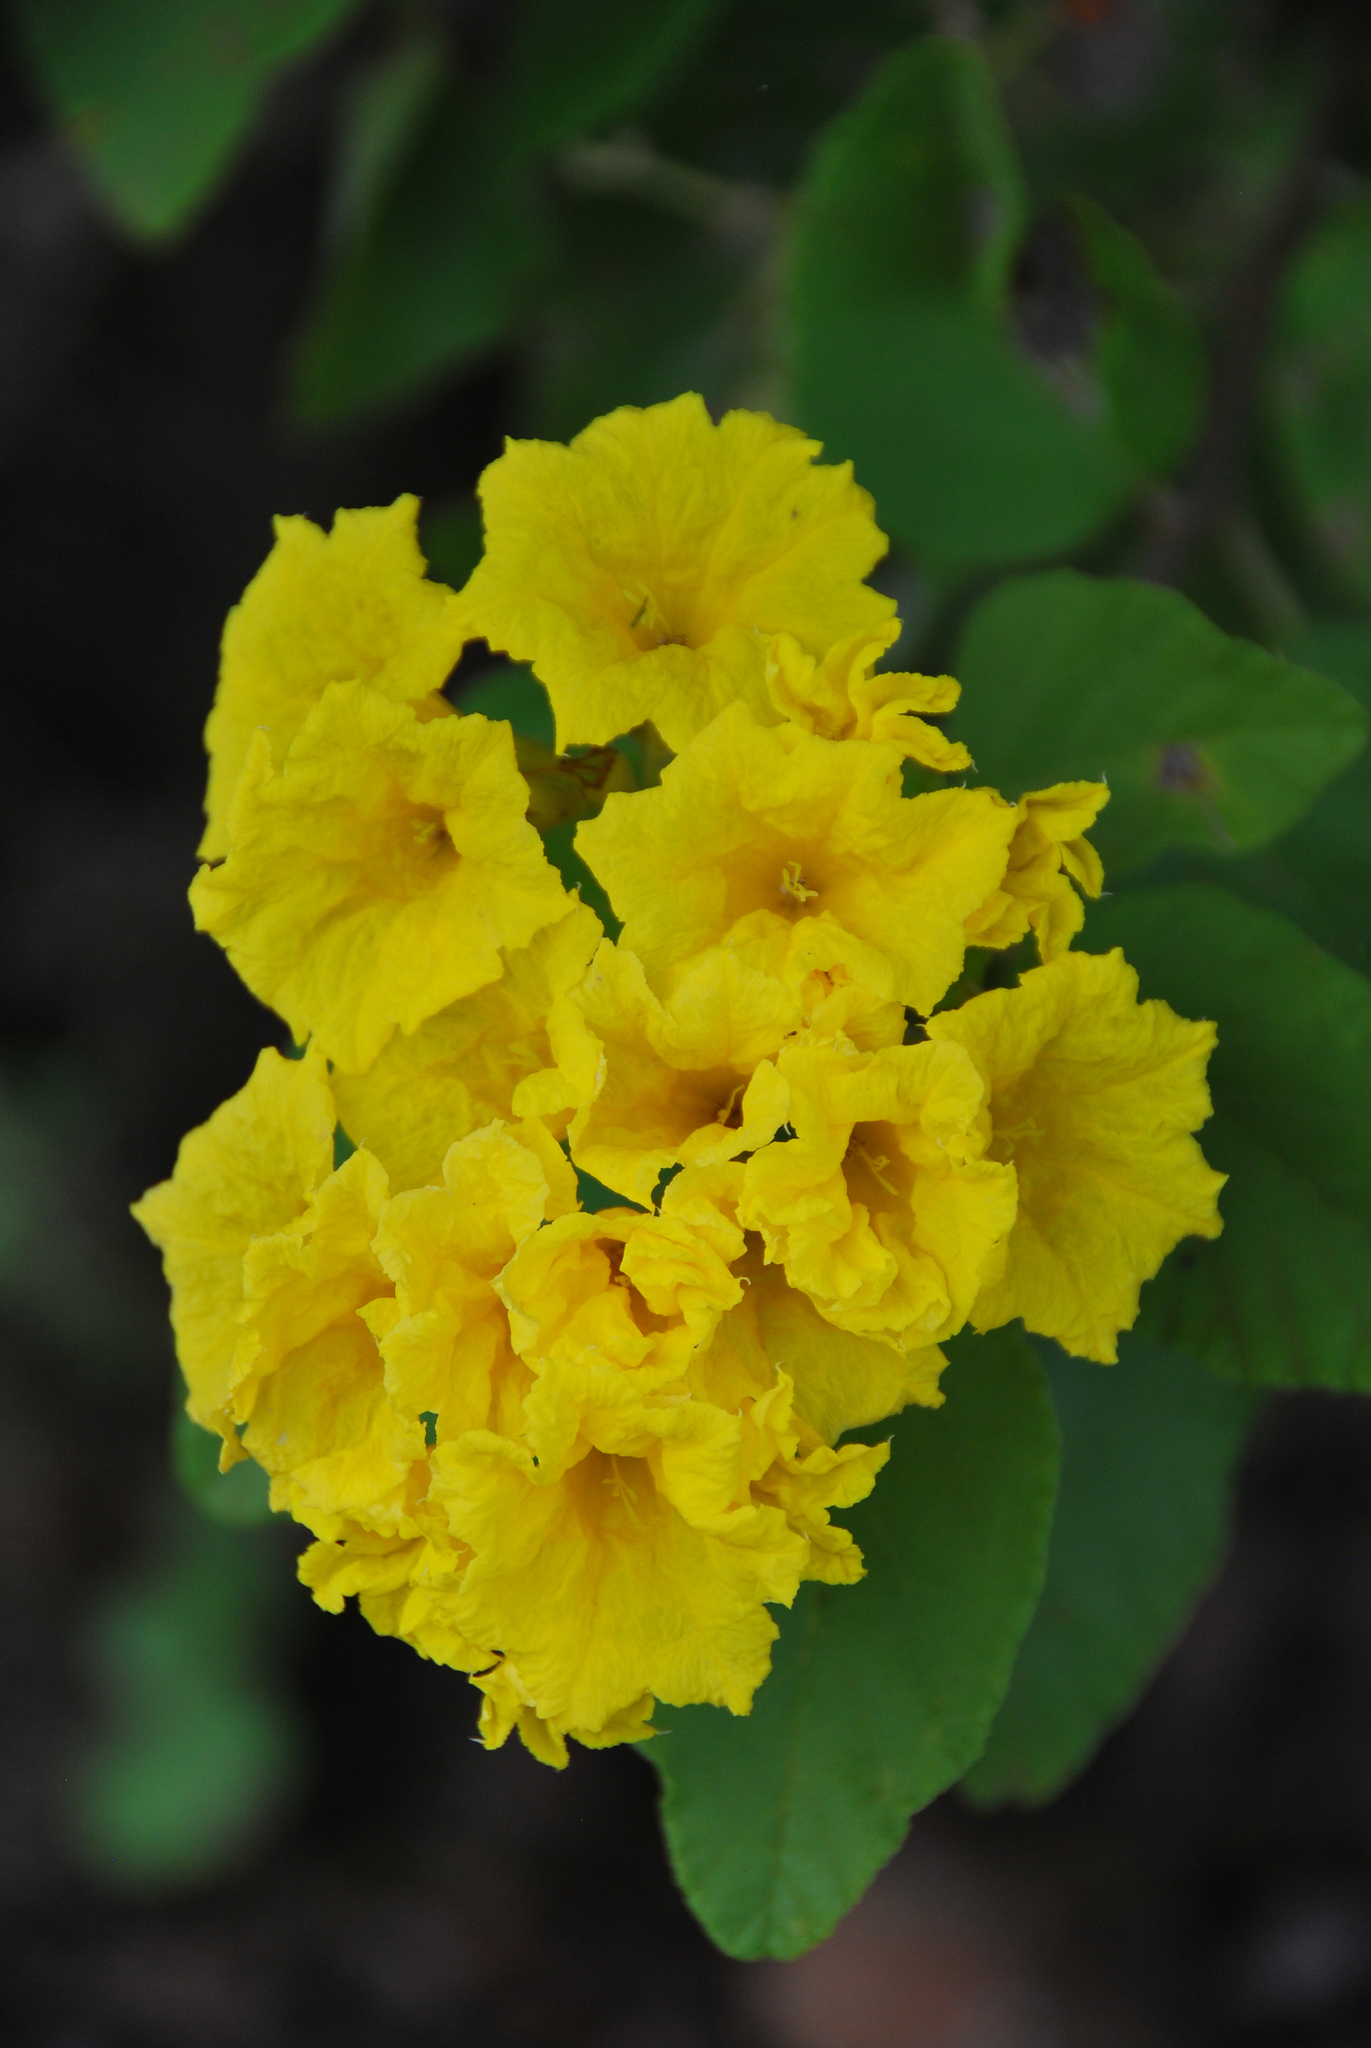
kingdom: Plantae
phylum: Tracheophyta
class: Magnoliopsida
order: Boraginales
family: Cordiaceae
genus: Cordia
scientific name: Cordia lutea
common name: Yellow geiger
